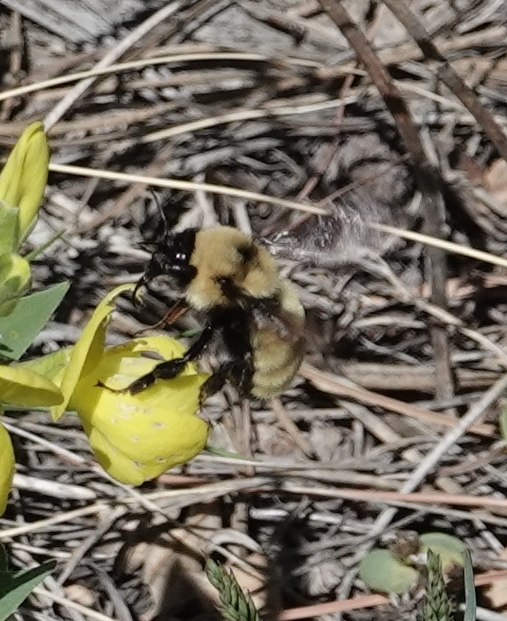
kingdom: Animalia
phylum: Arthropoda
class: Insecta
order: Hymenoptera
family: Apidae
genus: Bombus
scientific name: Bombus fervidus
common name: Yellow bumble bee
